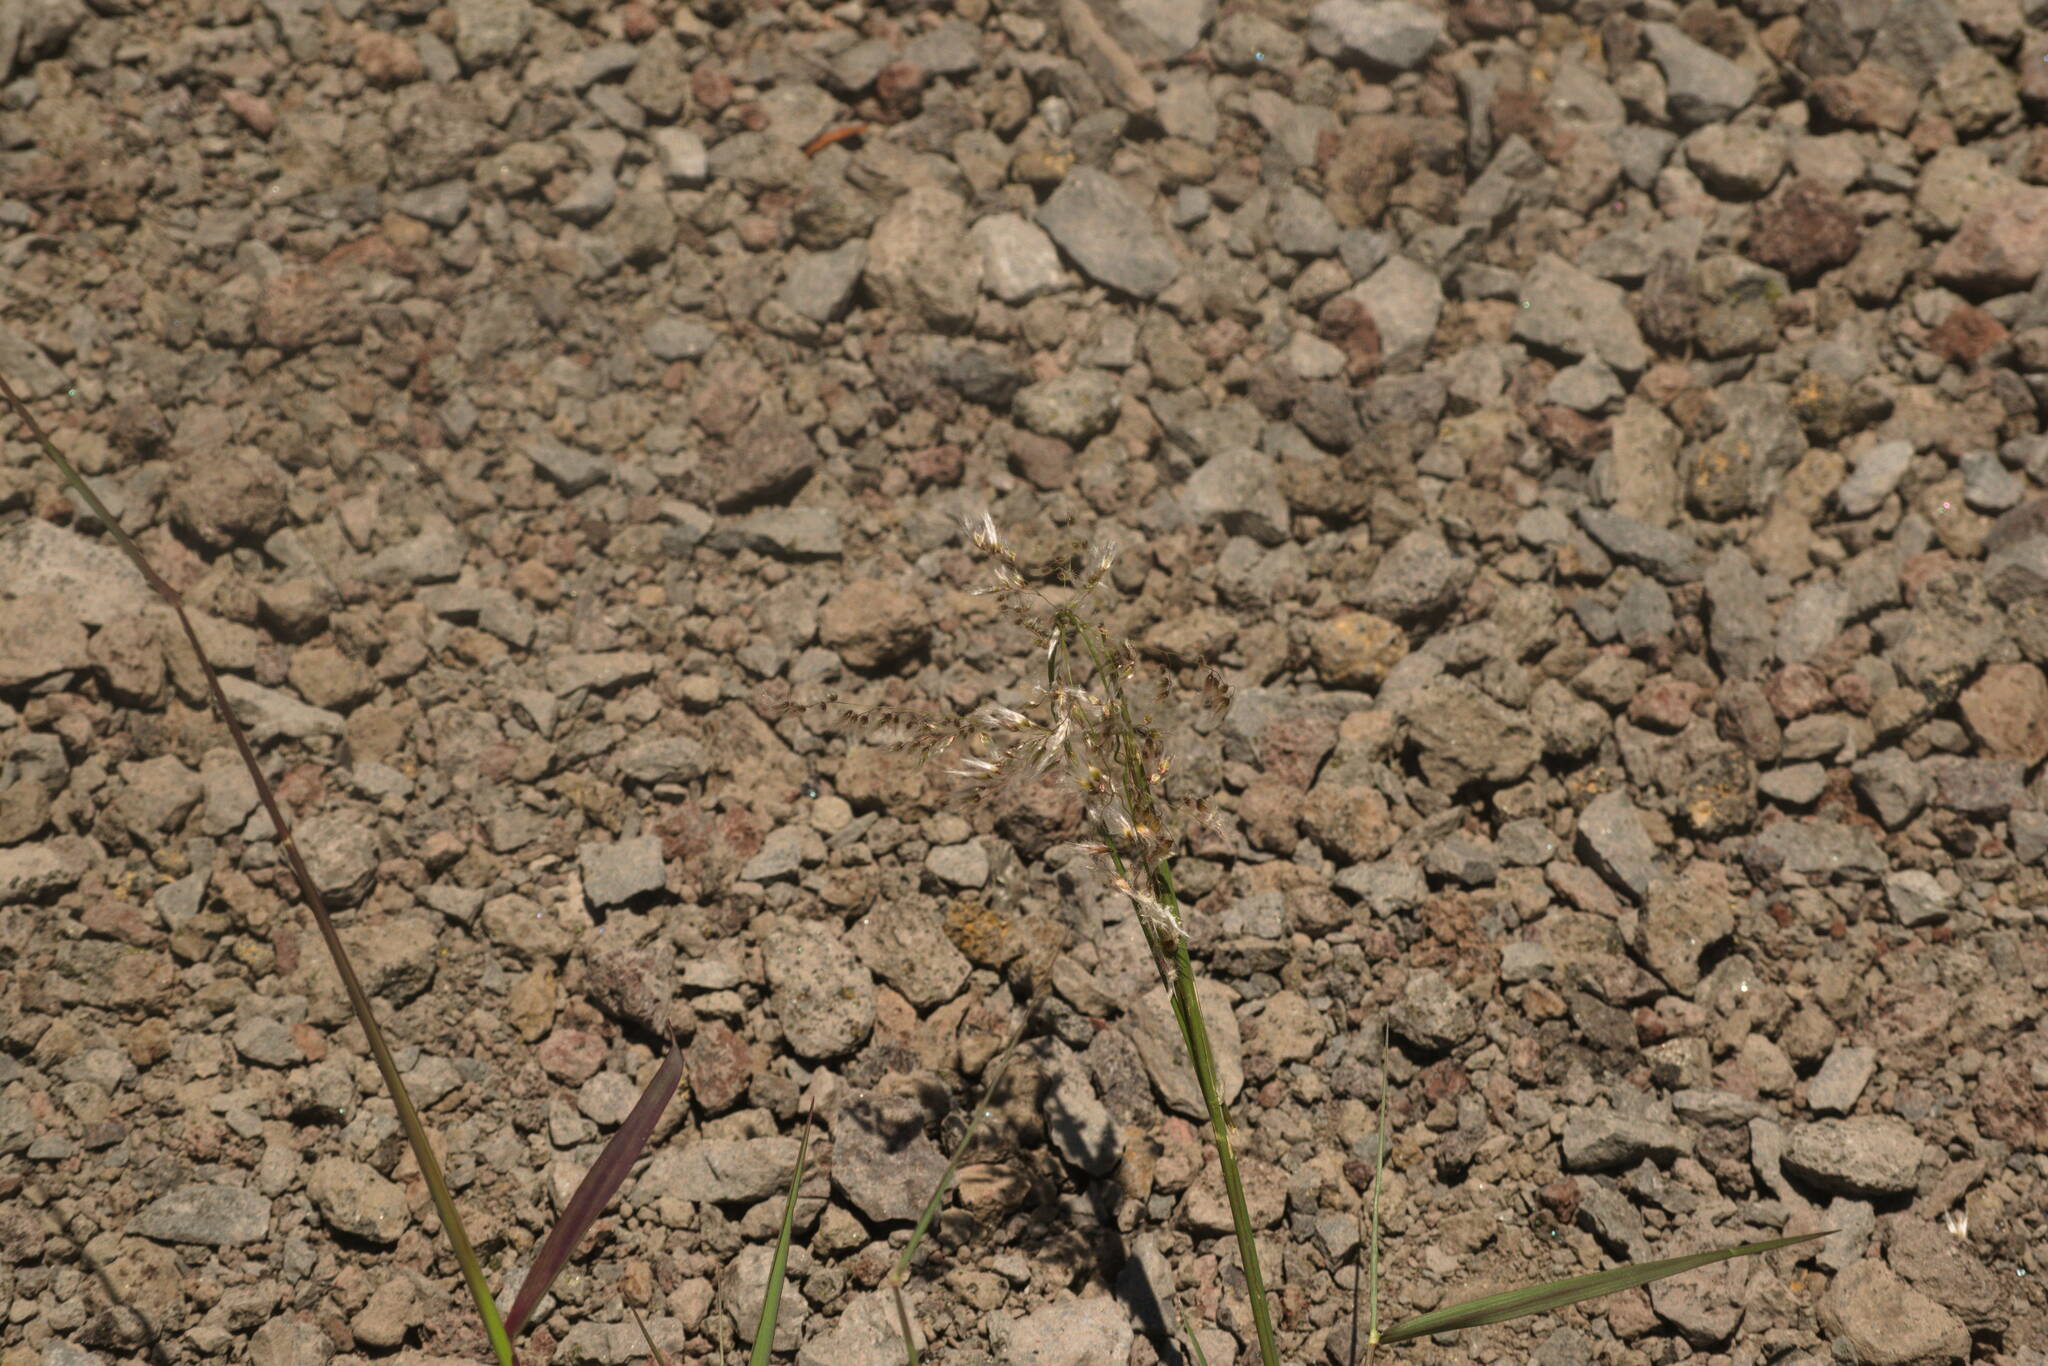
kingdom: Plantae
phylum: Tracheophyta
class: Liliopsida
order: Poales
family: Poaceae
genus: Melinis
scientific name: Melinis repens
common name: Rose natal grass
